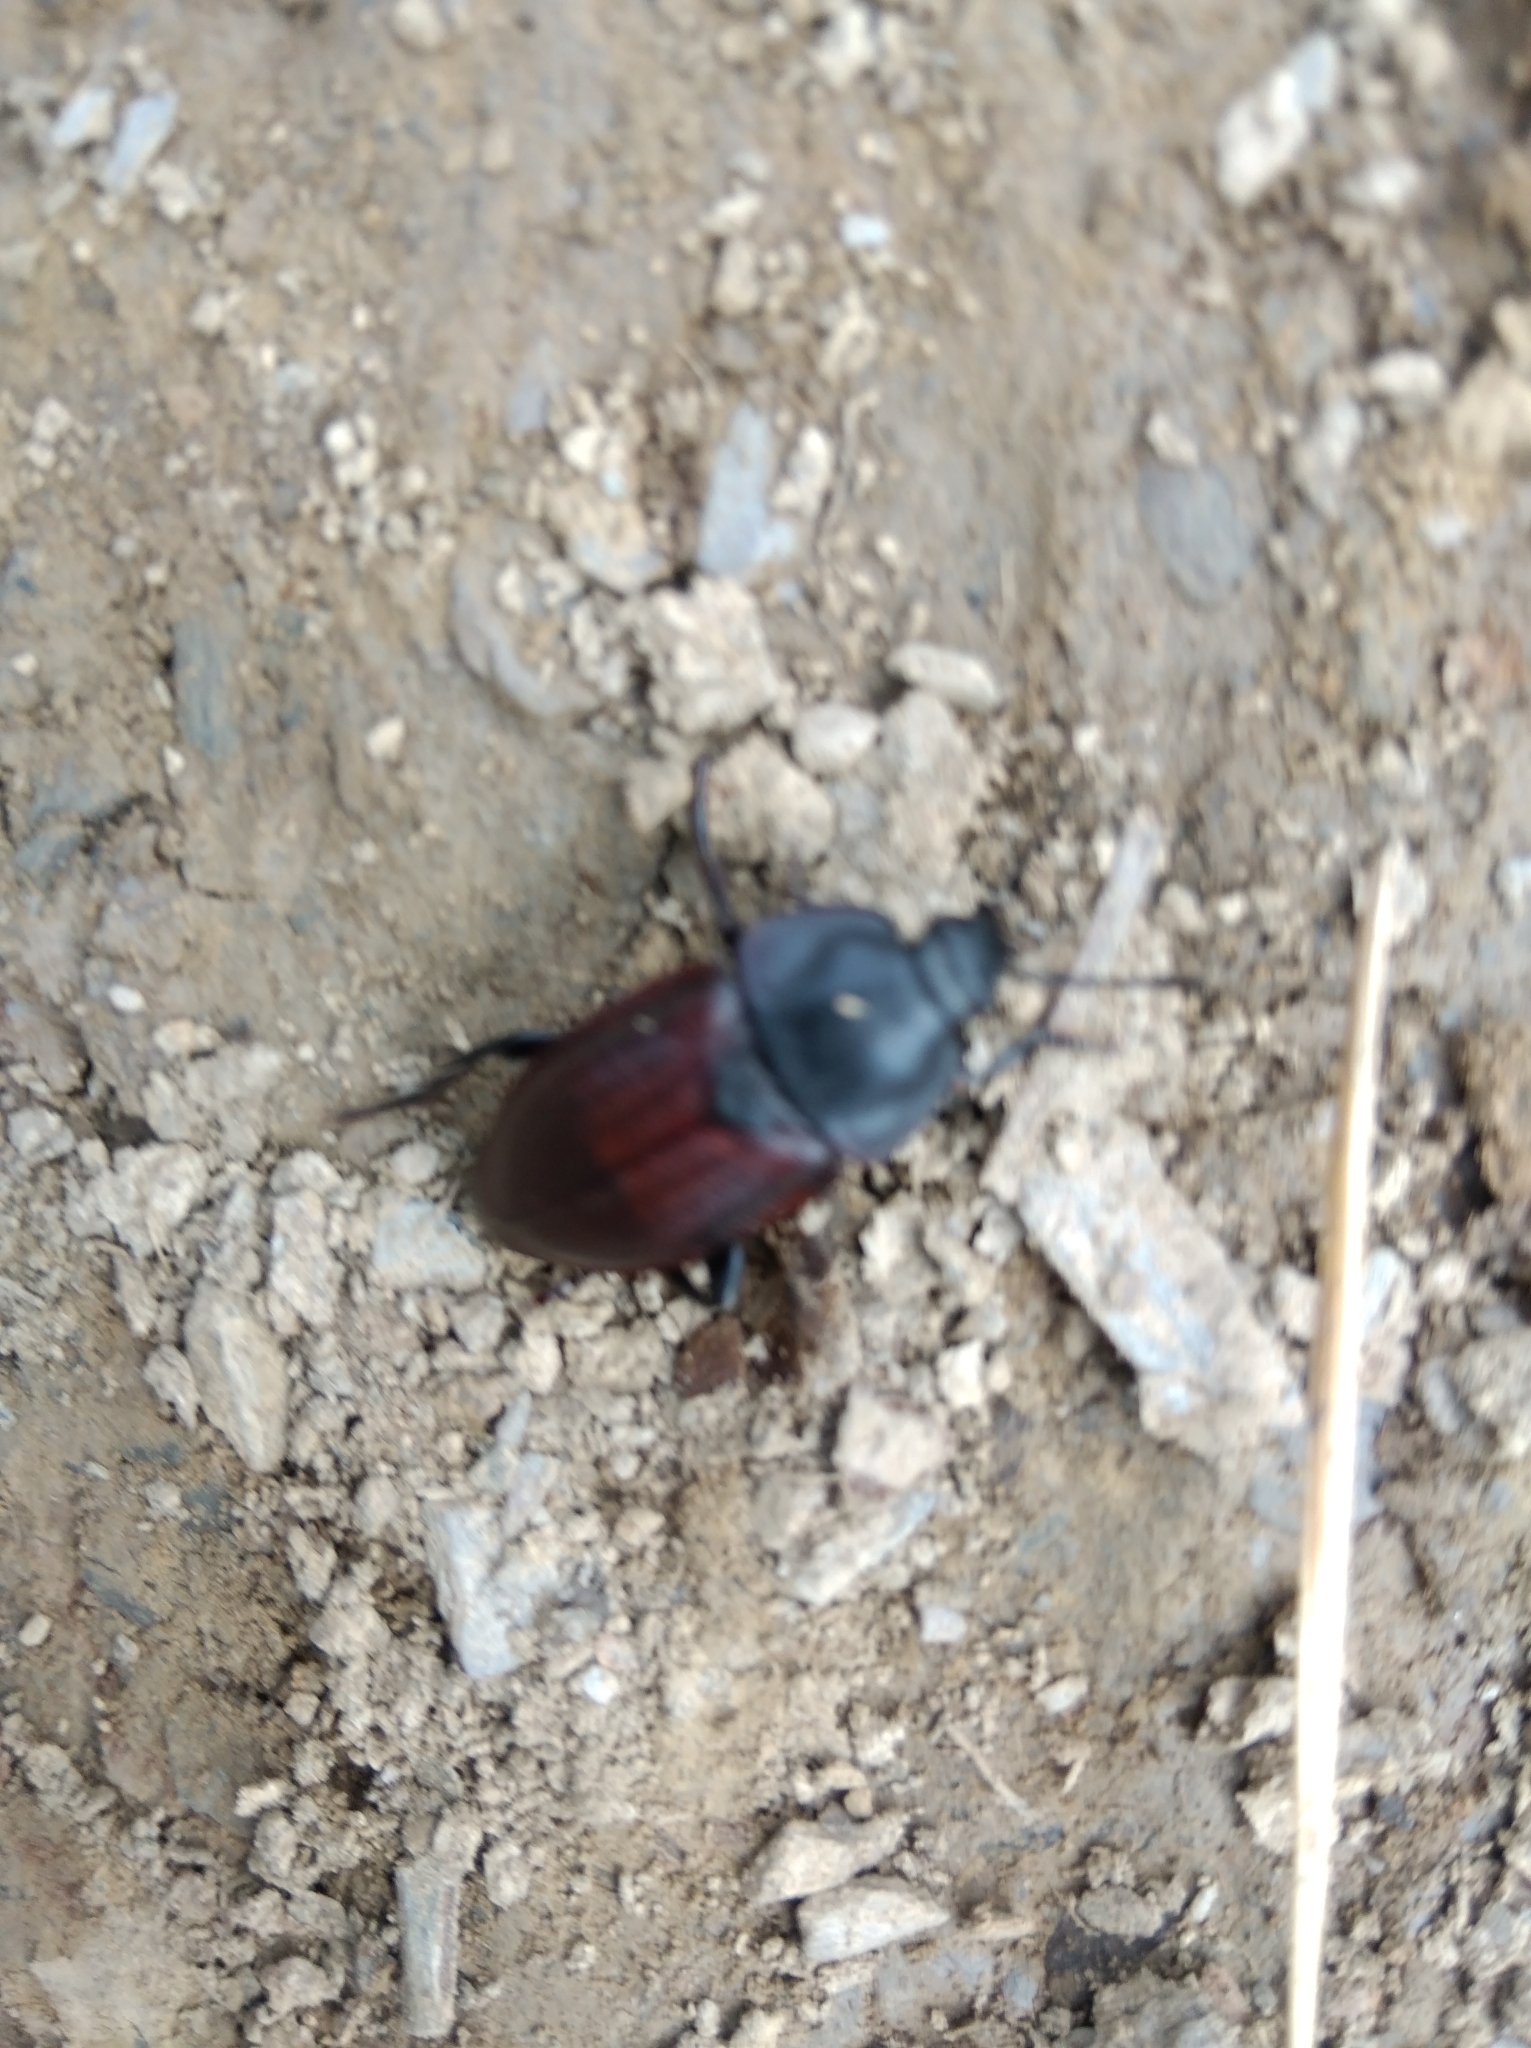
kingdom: Animalia
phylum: Arthropoda
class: Insecta
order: Coleoptera
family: Staphylinidae
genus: Silpha
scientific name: Silpha tyrolensis
